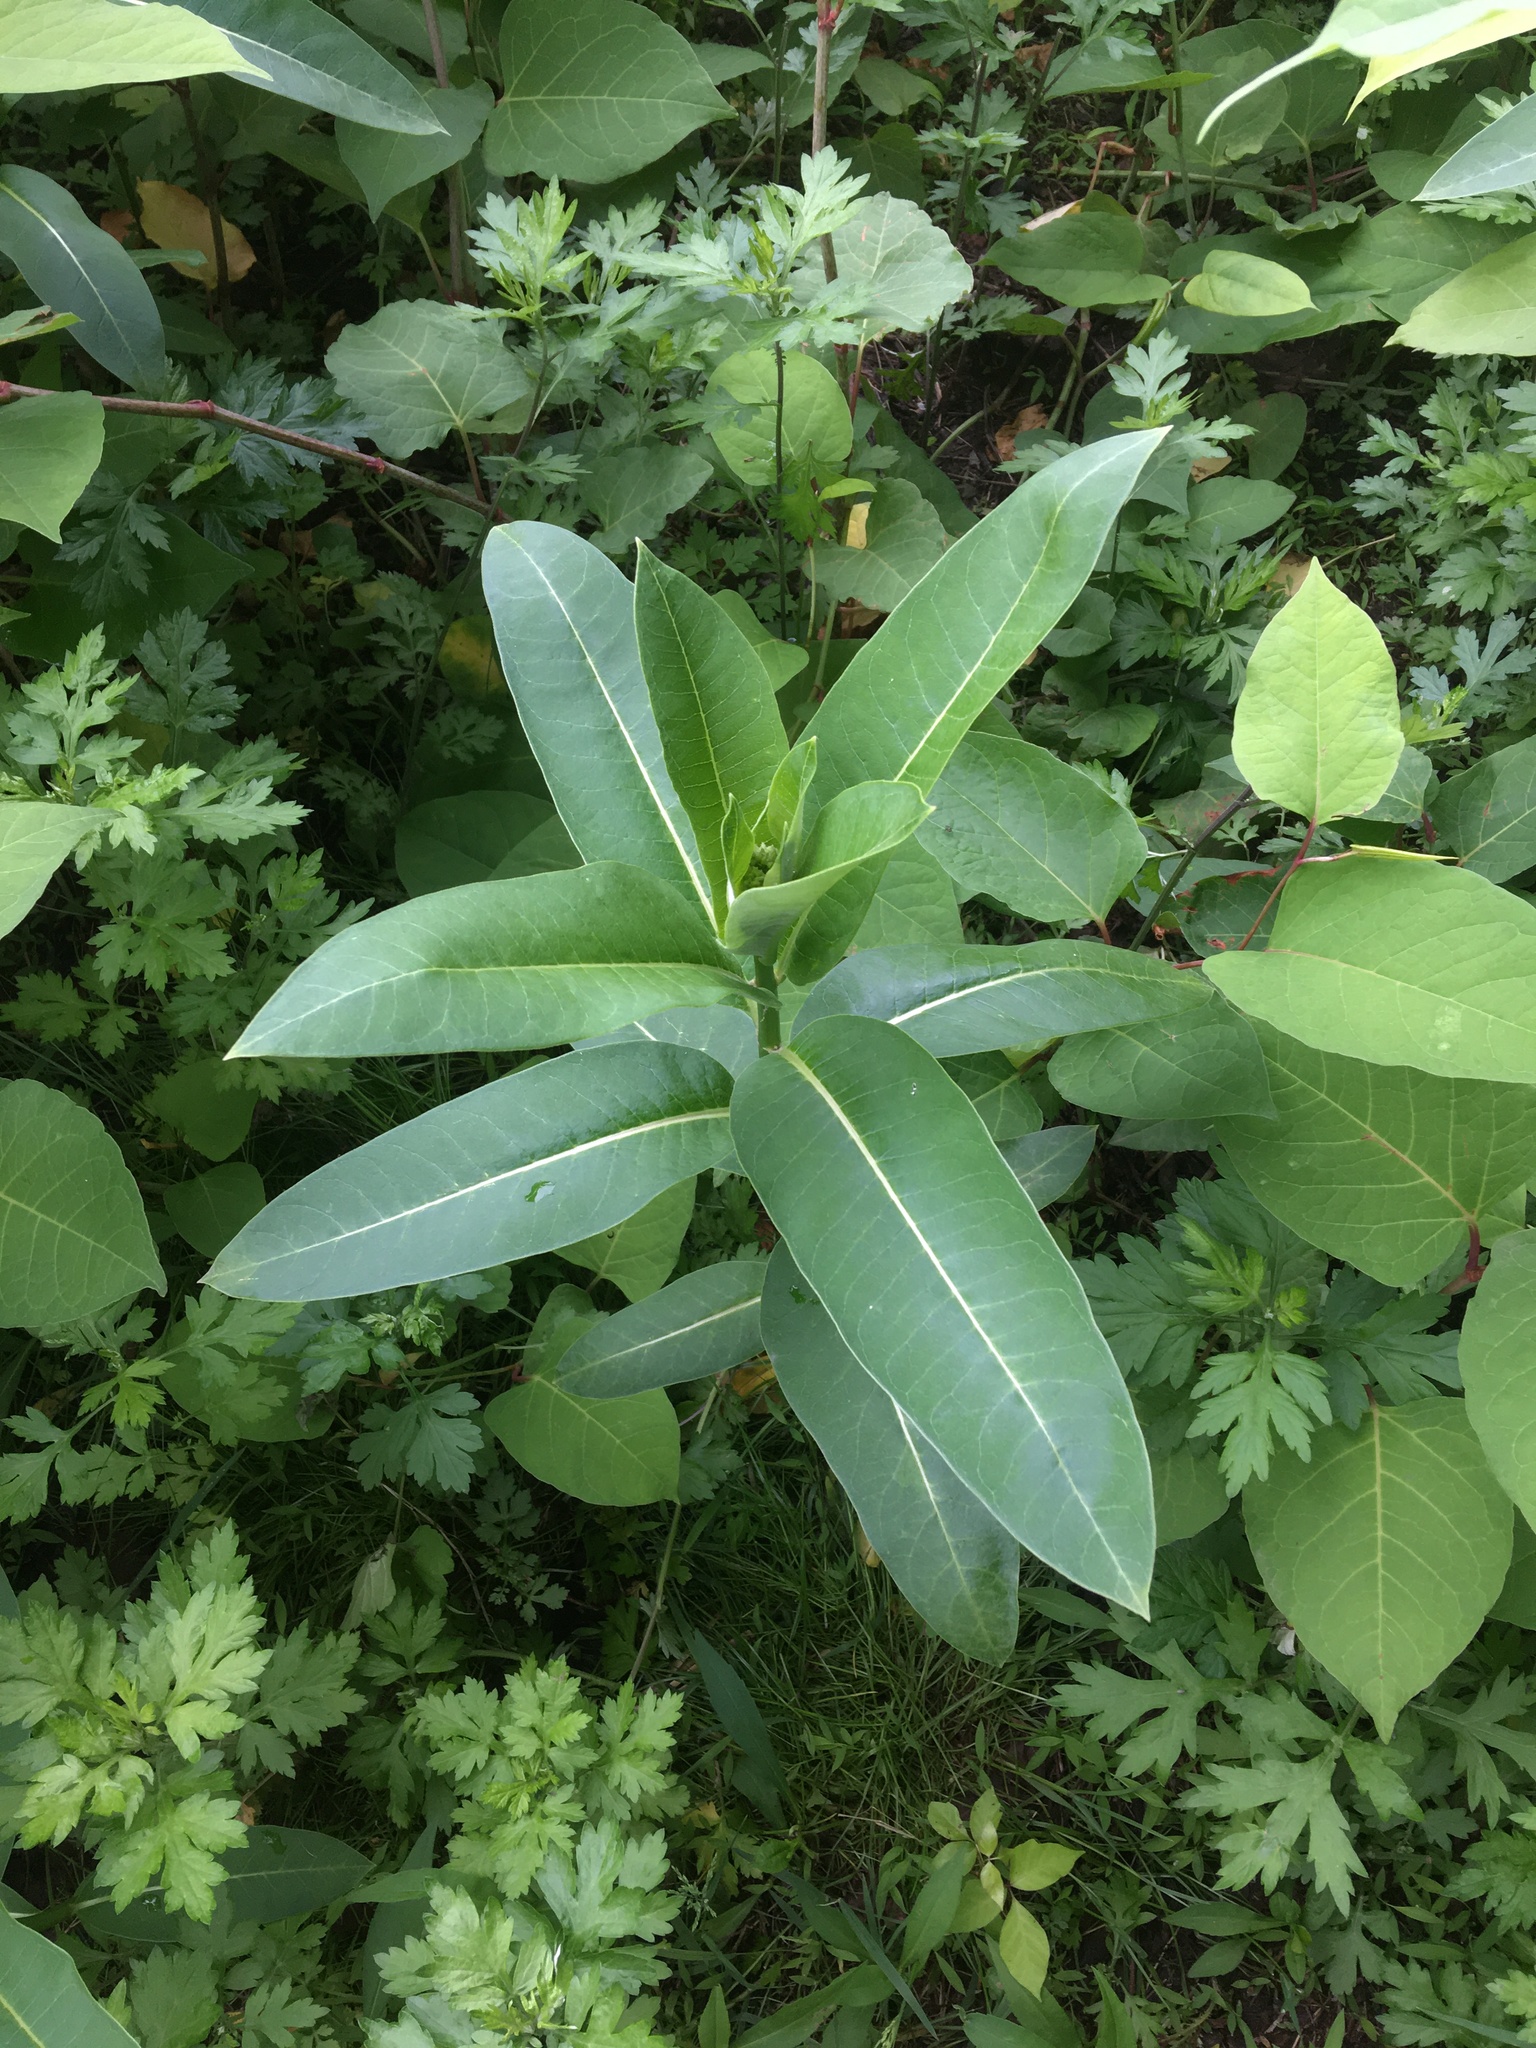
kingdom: Plantae
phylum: Tracheophyta
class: Magnoliopsida
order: Gentianales
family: Apocynaceae
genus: Asclepias
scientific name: Asclepias syriaca
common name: Common milkweed
